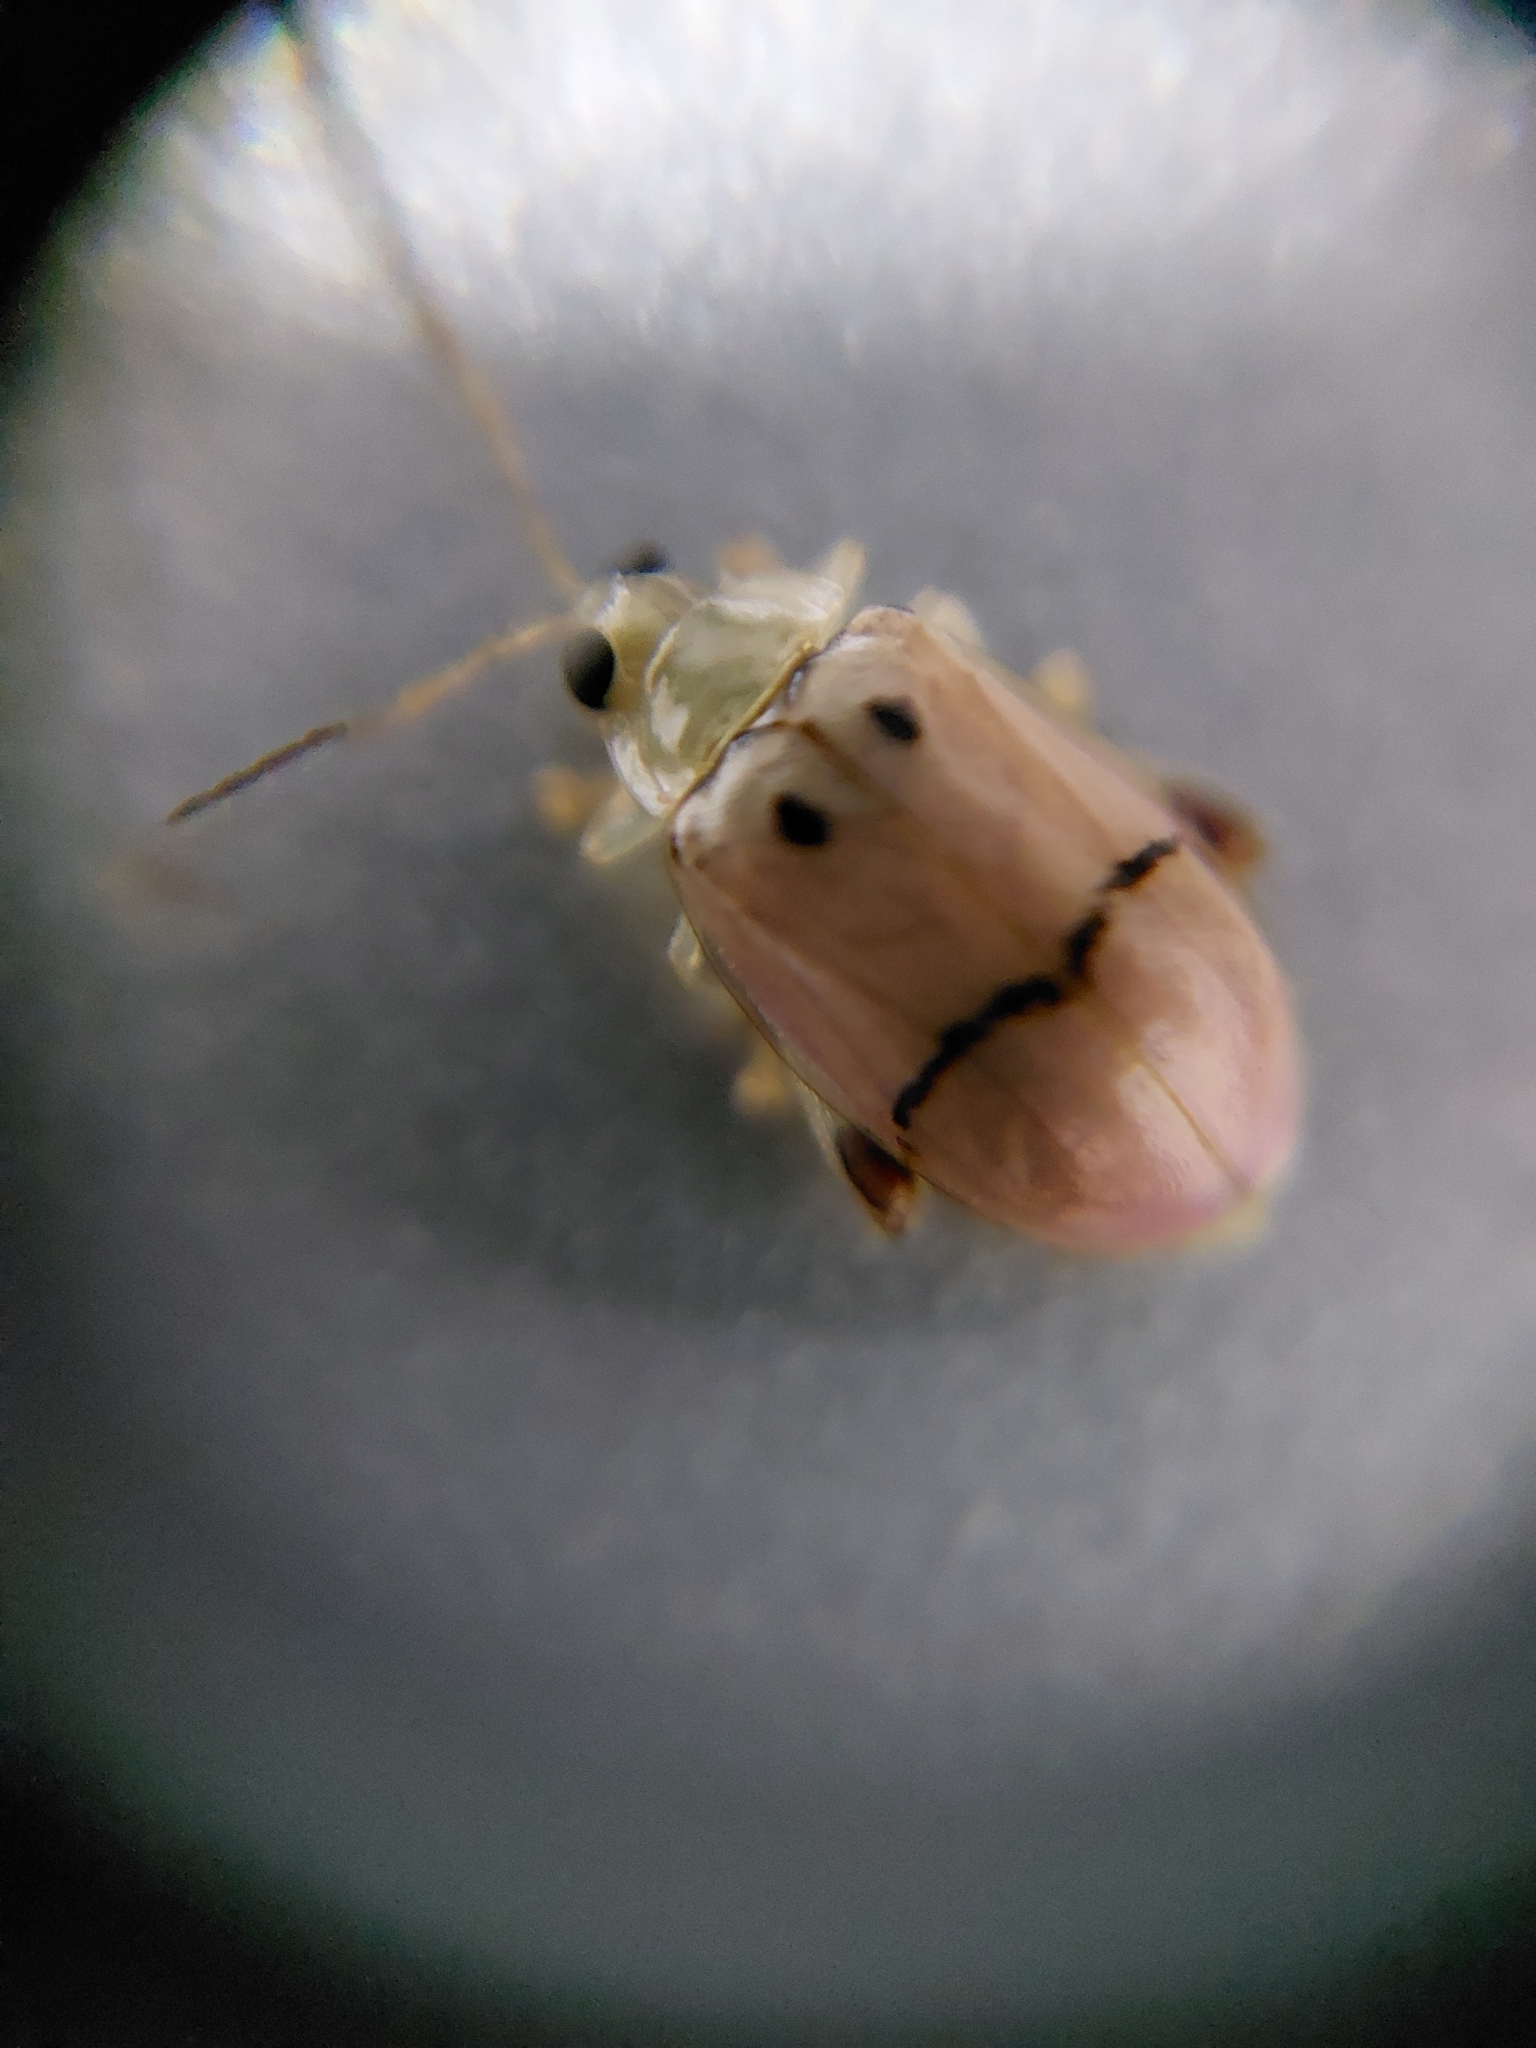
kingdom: Animalia
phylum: Arthropoda
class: Insecta
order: Coleoptera
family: Chrysomelidae
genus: Walterianella
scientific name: Walterianella
